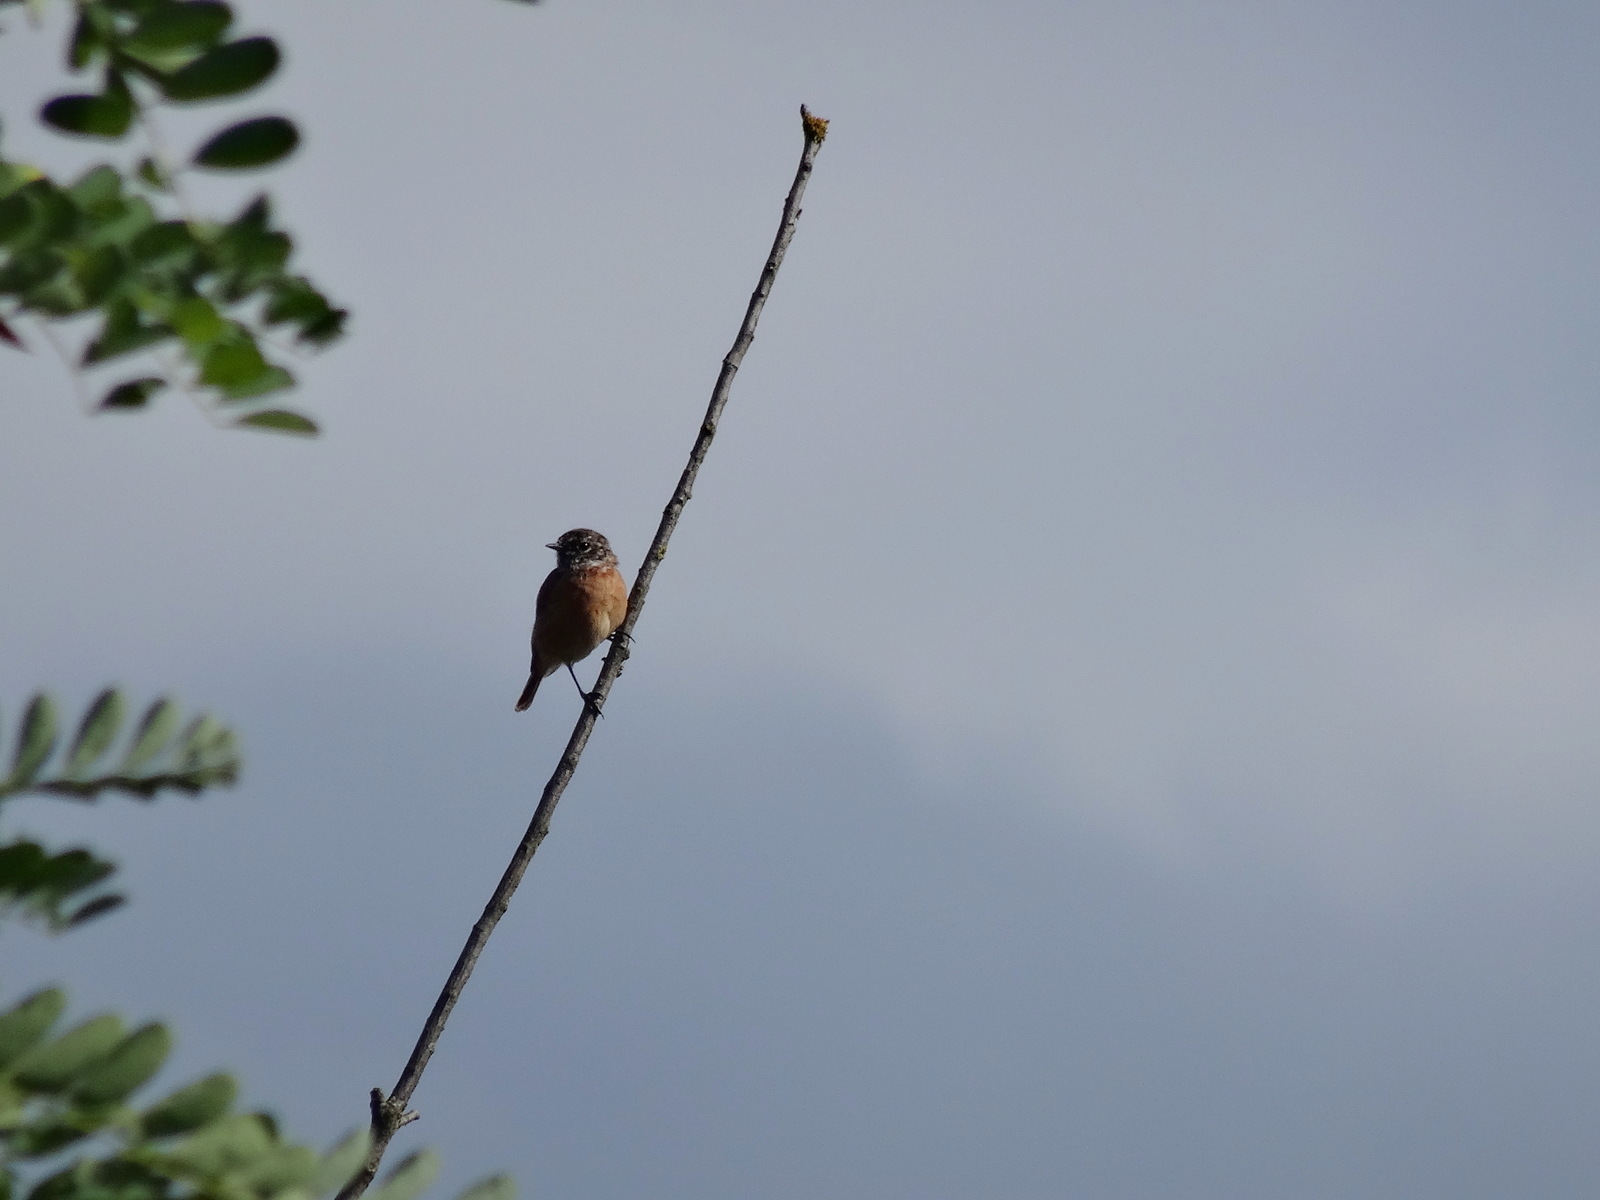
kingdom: Animalia
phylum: Chordata
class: Aves
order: Passeriformes
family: Muscicapidae
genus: Saxicola
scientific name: Saxicola rubicola
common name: European stonechat
